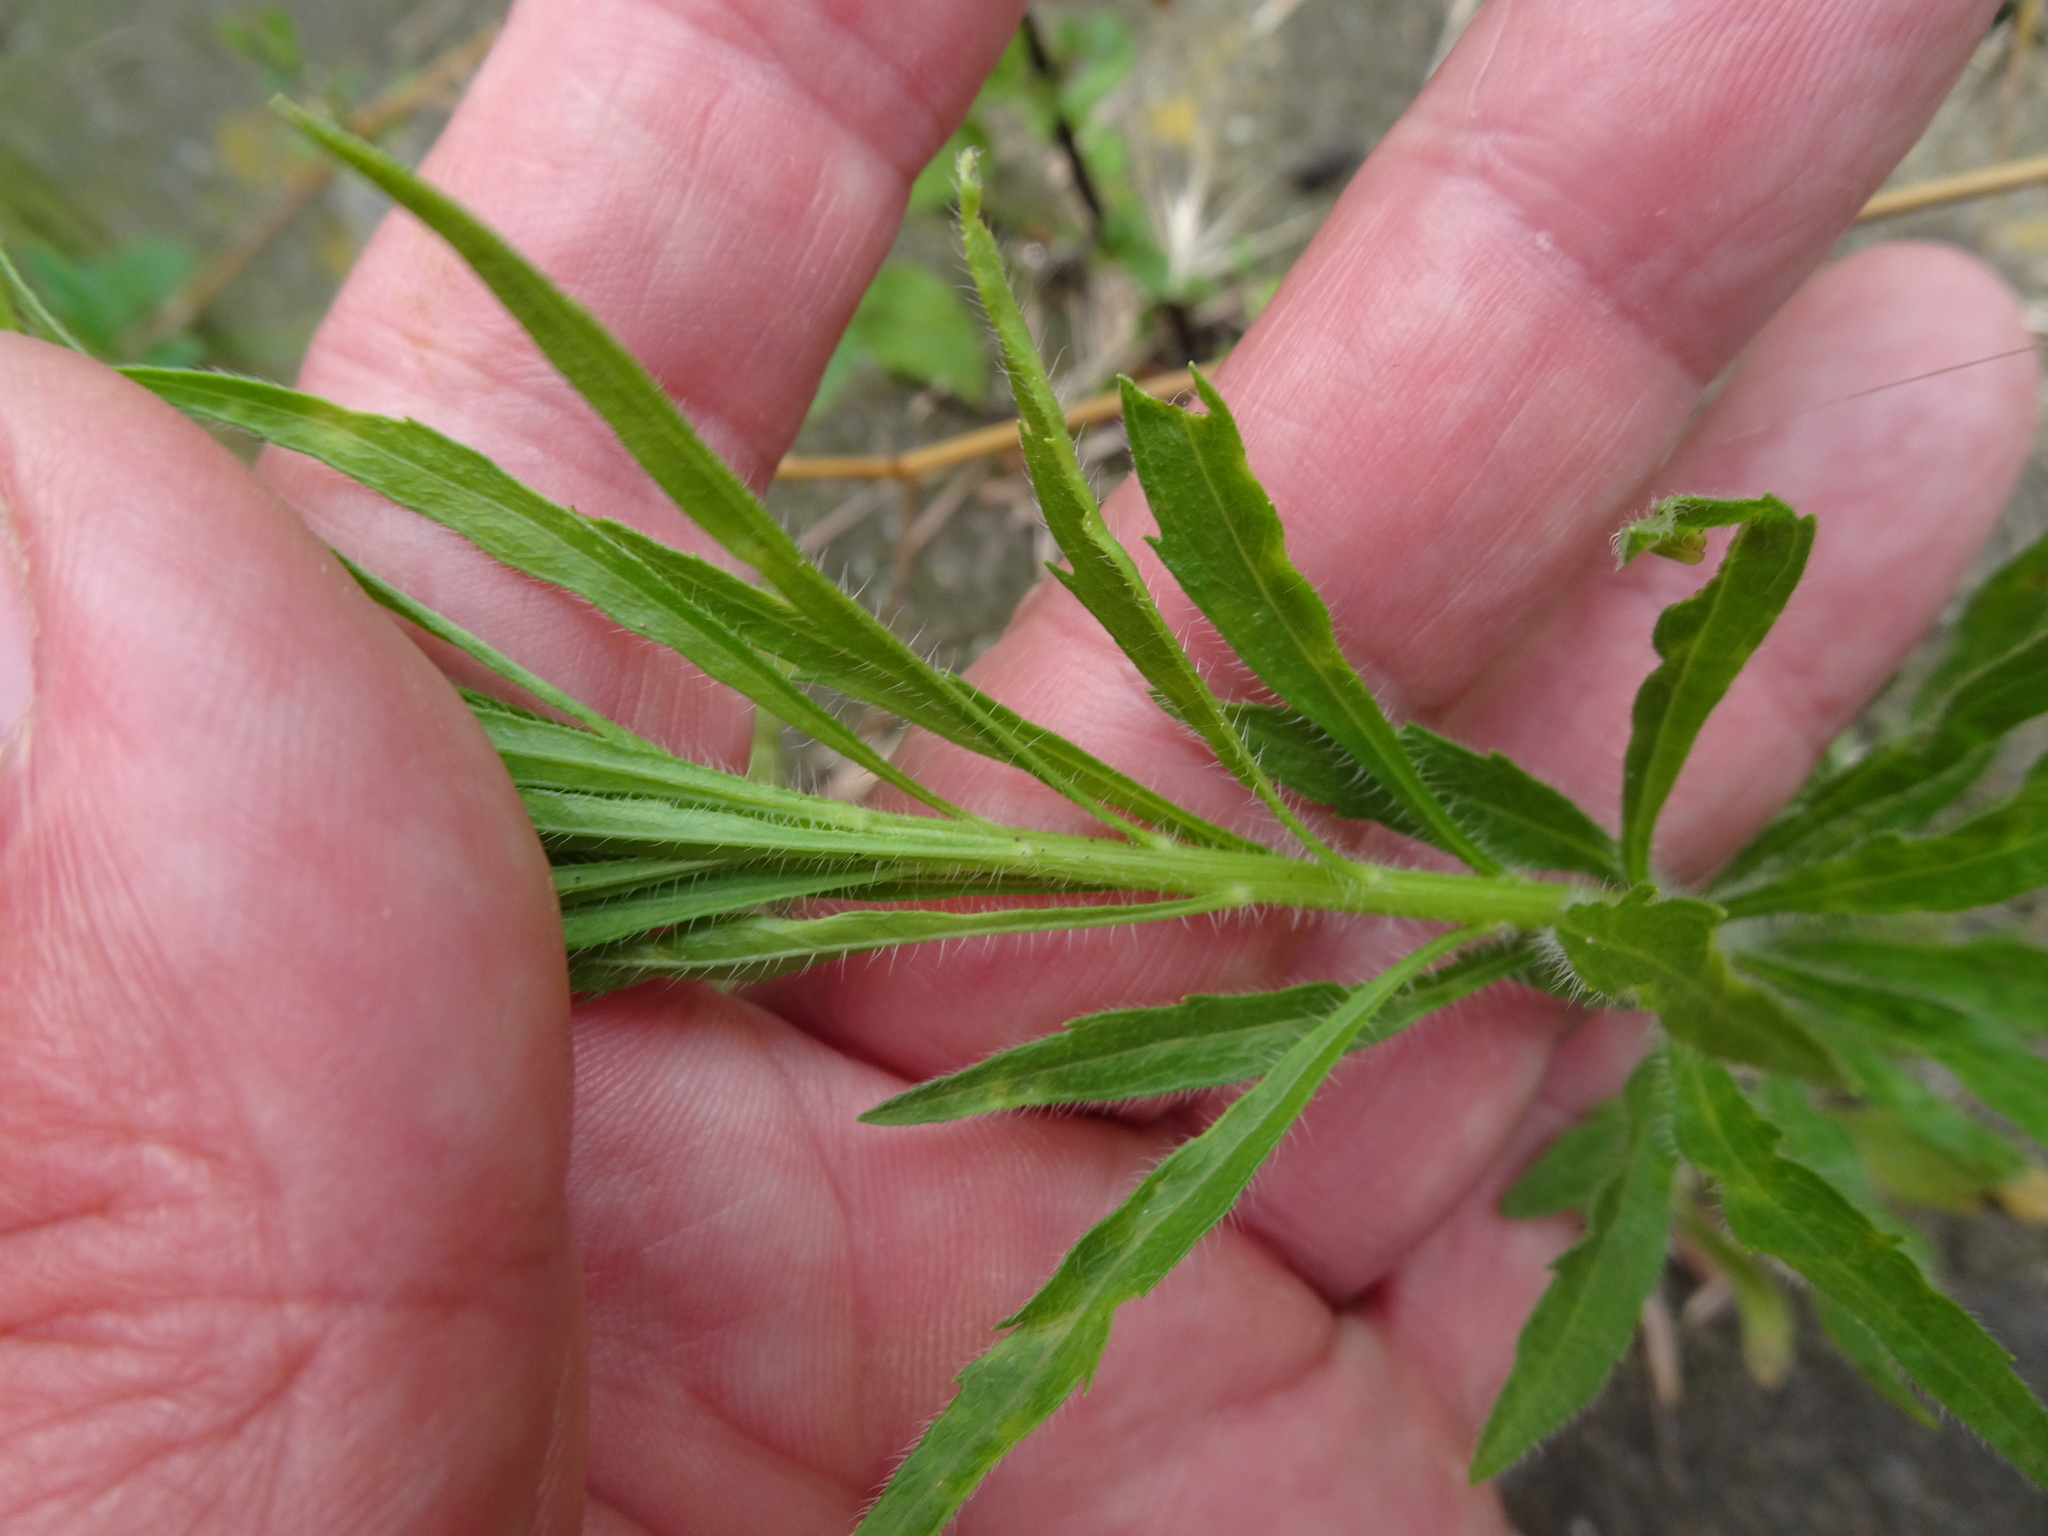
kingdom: Plantae
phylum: Tracheophyta
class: Magnoliopsida
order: Asterales
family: Asteraceae
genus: Erigeron
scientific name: Erigeron canadensis
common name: Canadian fleabane
